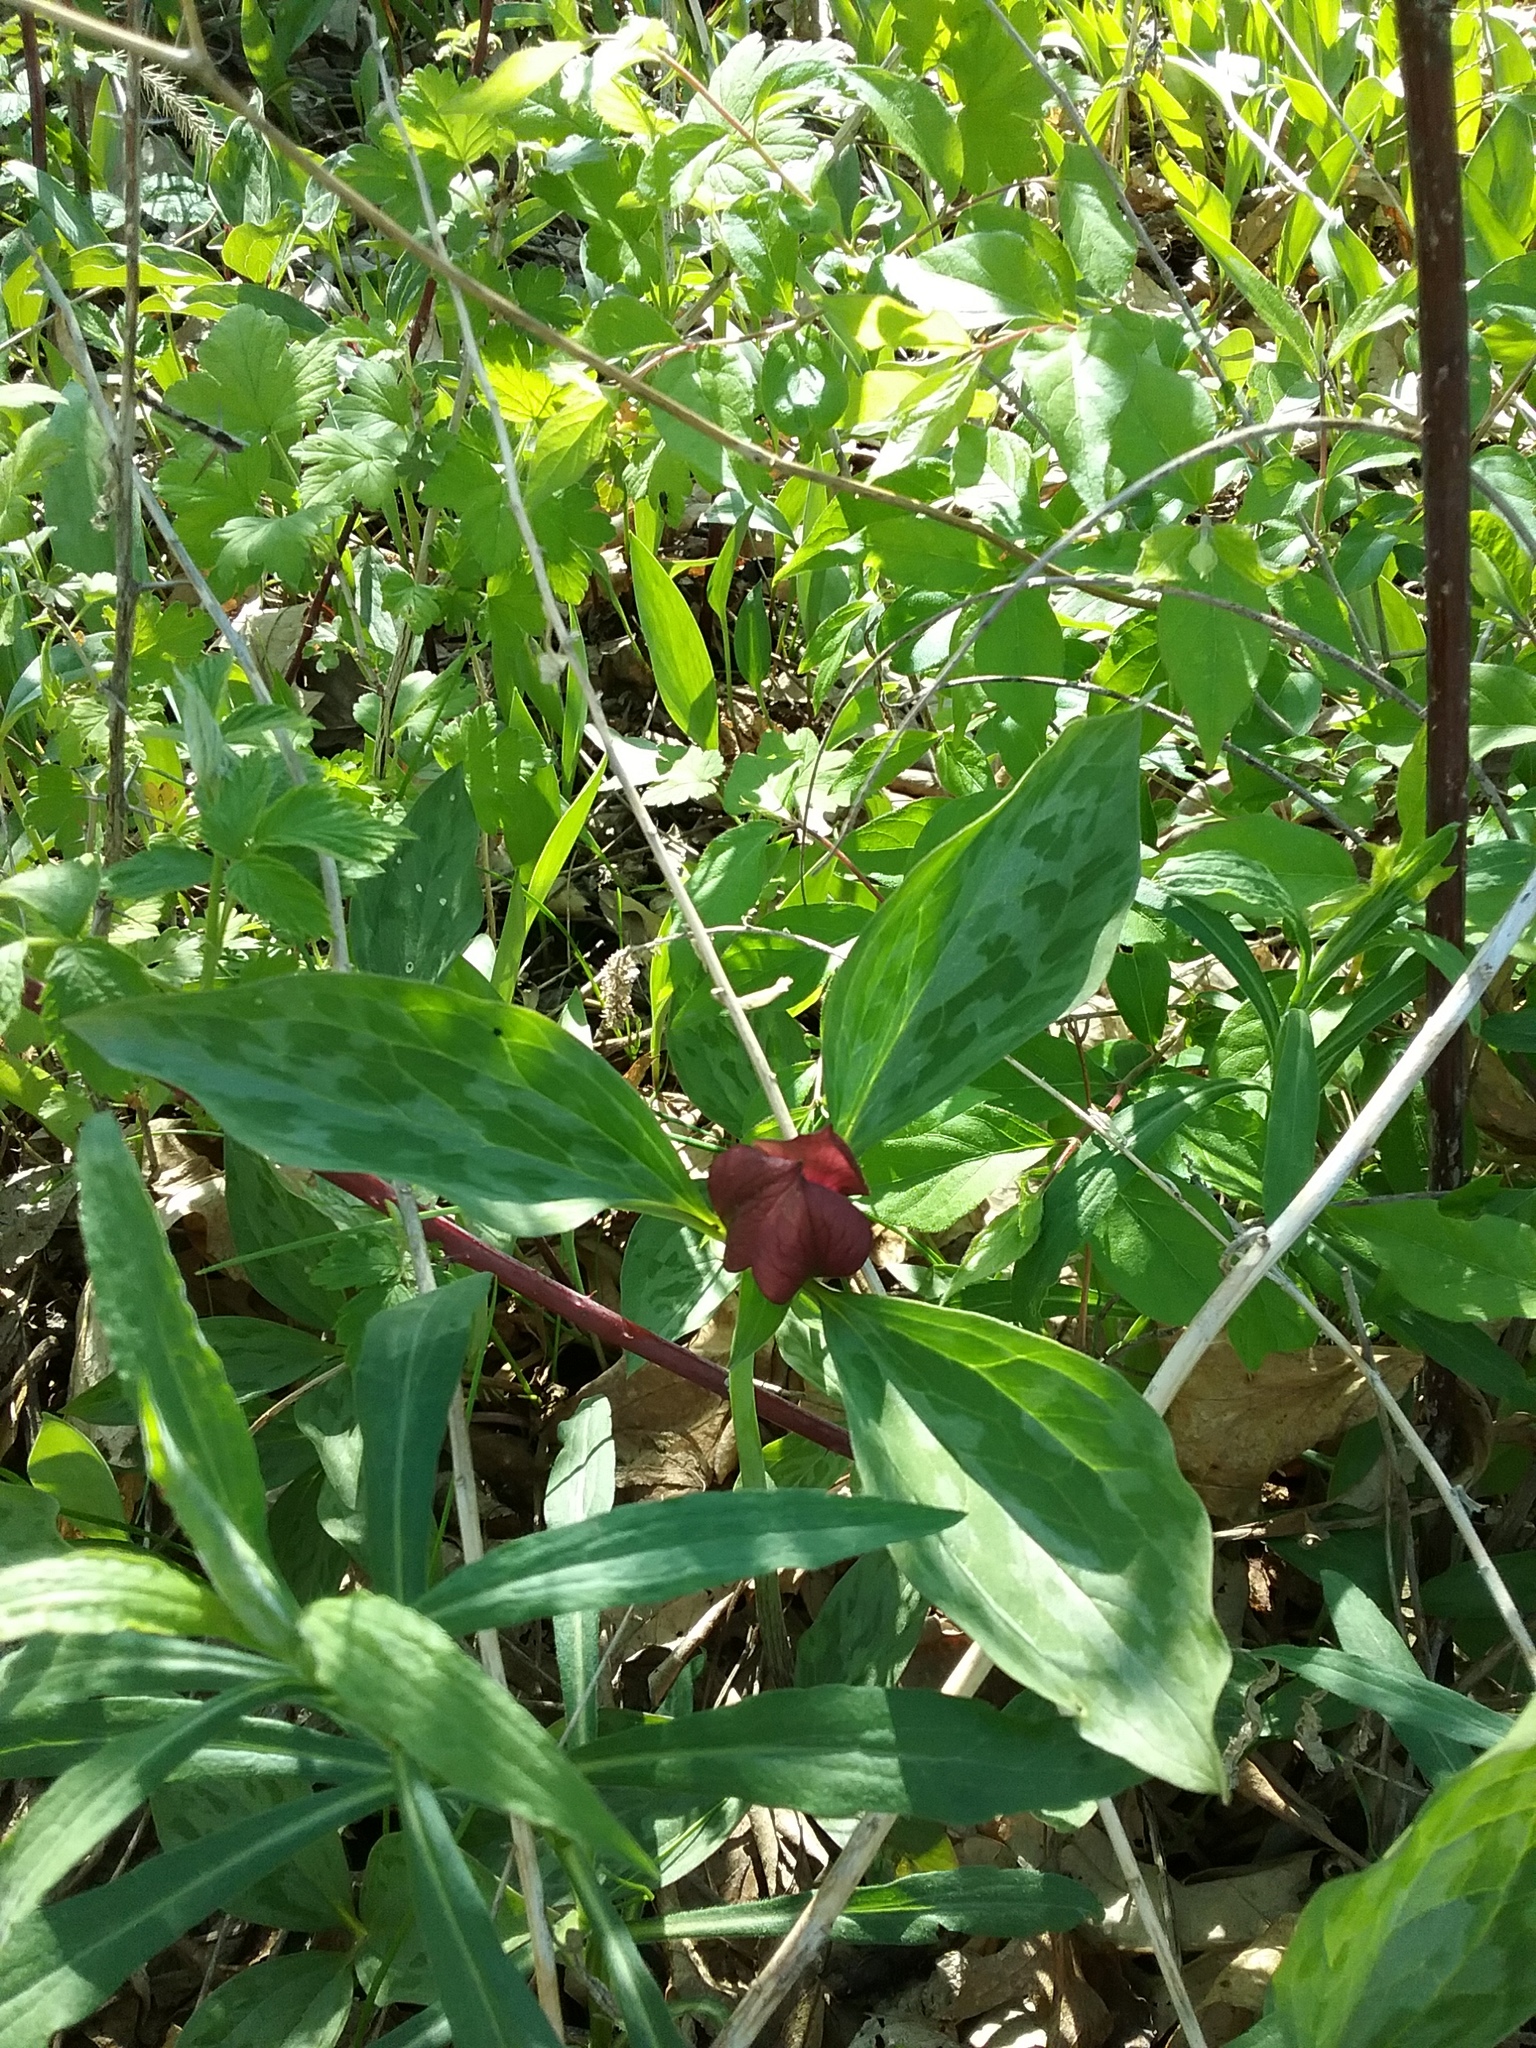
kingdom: Plantae
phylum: Tracheophyta
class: Liliopsida
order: Liliales
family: Melanthiaceae
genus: Trillium
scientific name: Trillium recurvatum
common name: Bloody butcher
